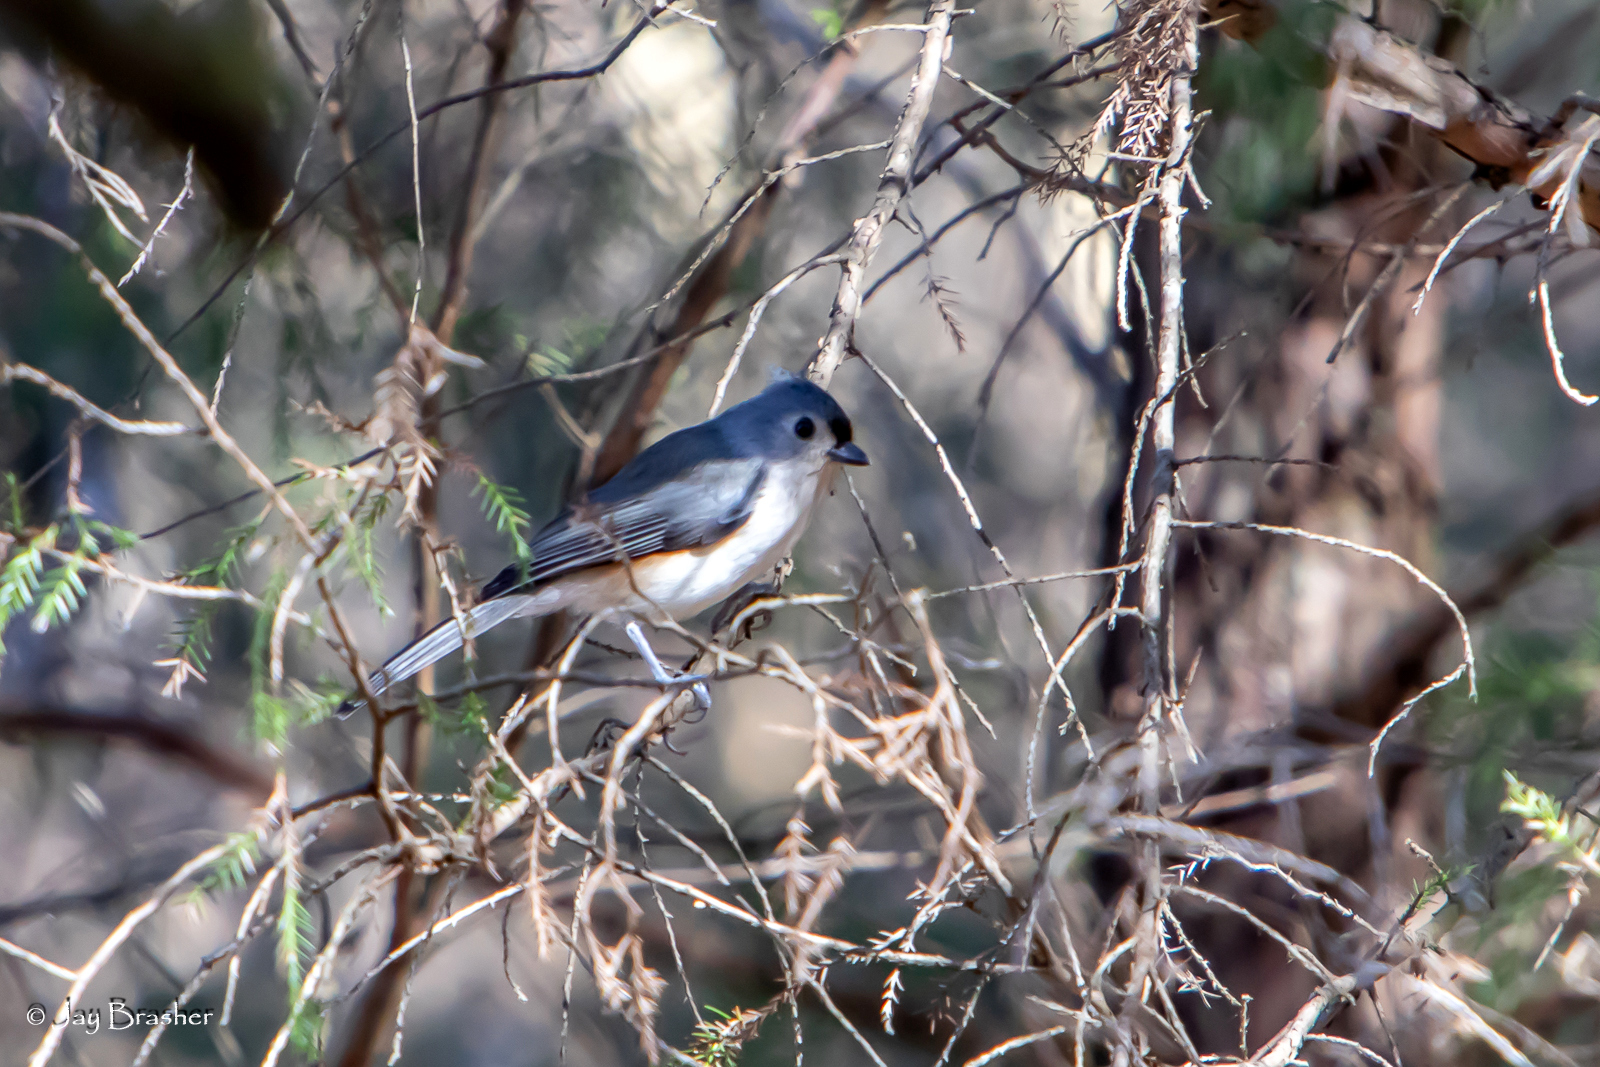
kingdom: Animalia
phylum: Chordata
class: Aves
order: Passeriformes
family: Paridae
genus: Baeolophus
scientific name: Baeolophus bicolor
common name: Tufted titmouse
